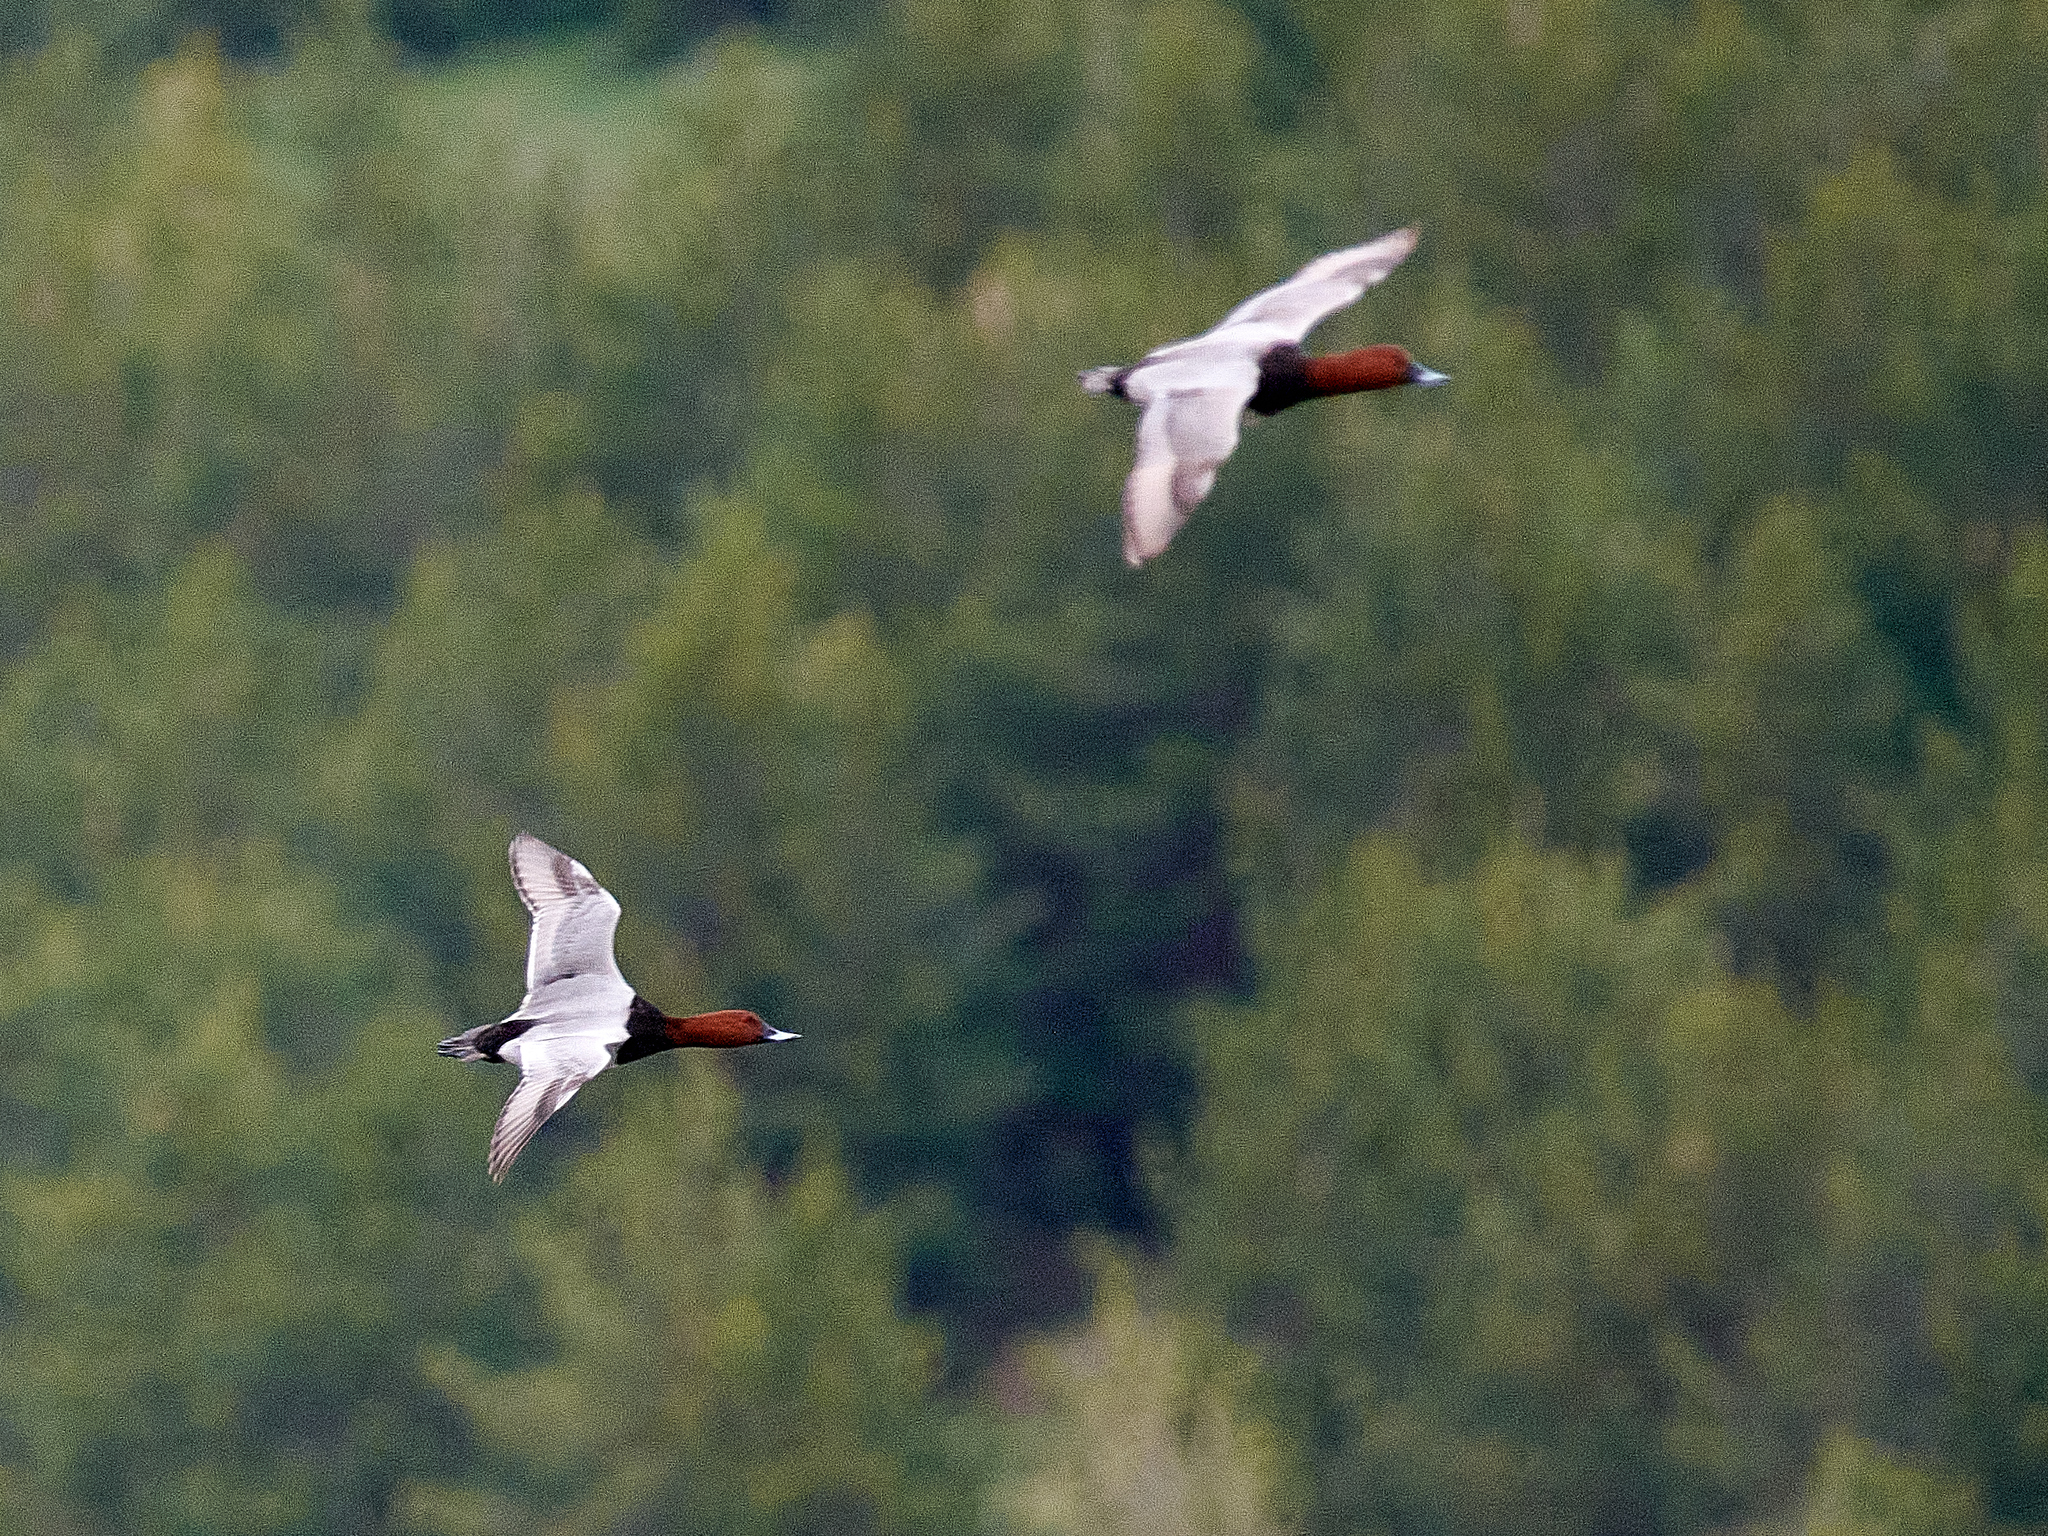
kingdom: Animalia
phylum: Chordata
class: Aves
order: Anseriformes
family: Anatidae
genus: Aythya
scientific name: Aythya ferina
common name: Common pochard
